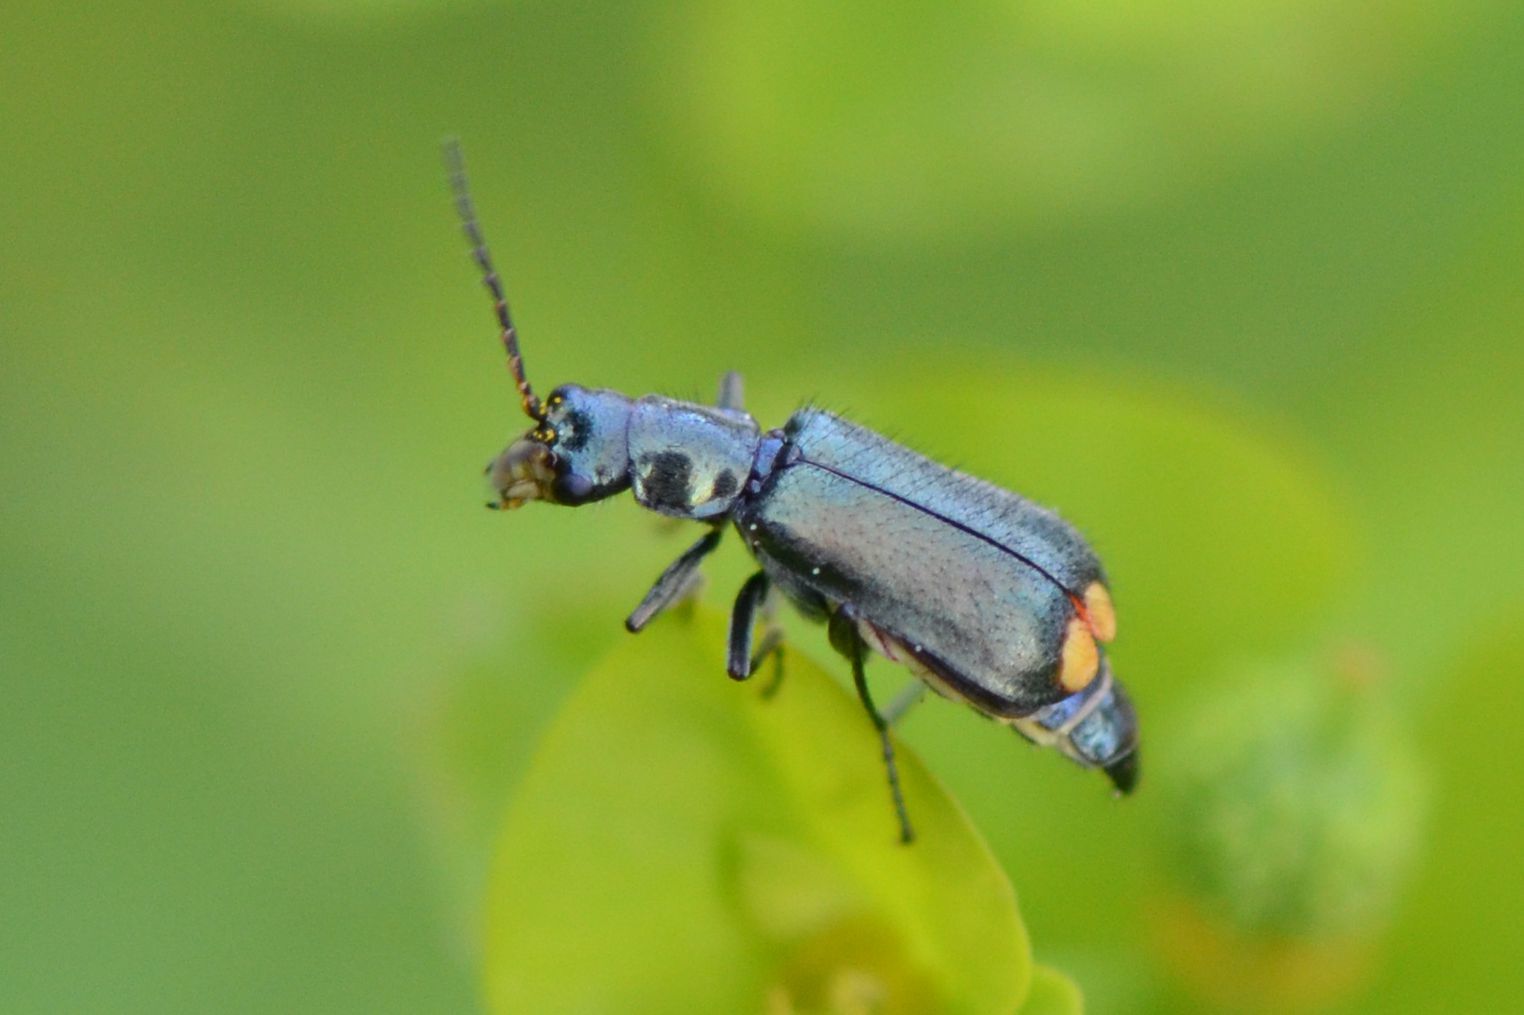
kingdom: Animalia
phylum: Arthropoda
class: Insecta
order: Coleoptera
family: Malachiidae
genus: Clanoptilus
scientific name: Clanoptilus marginellus
